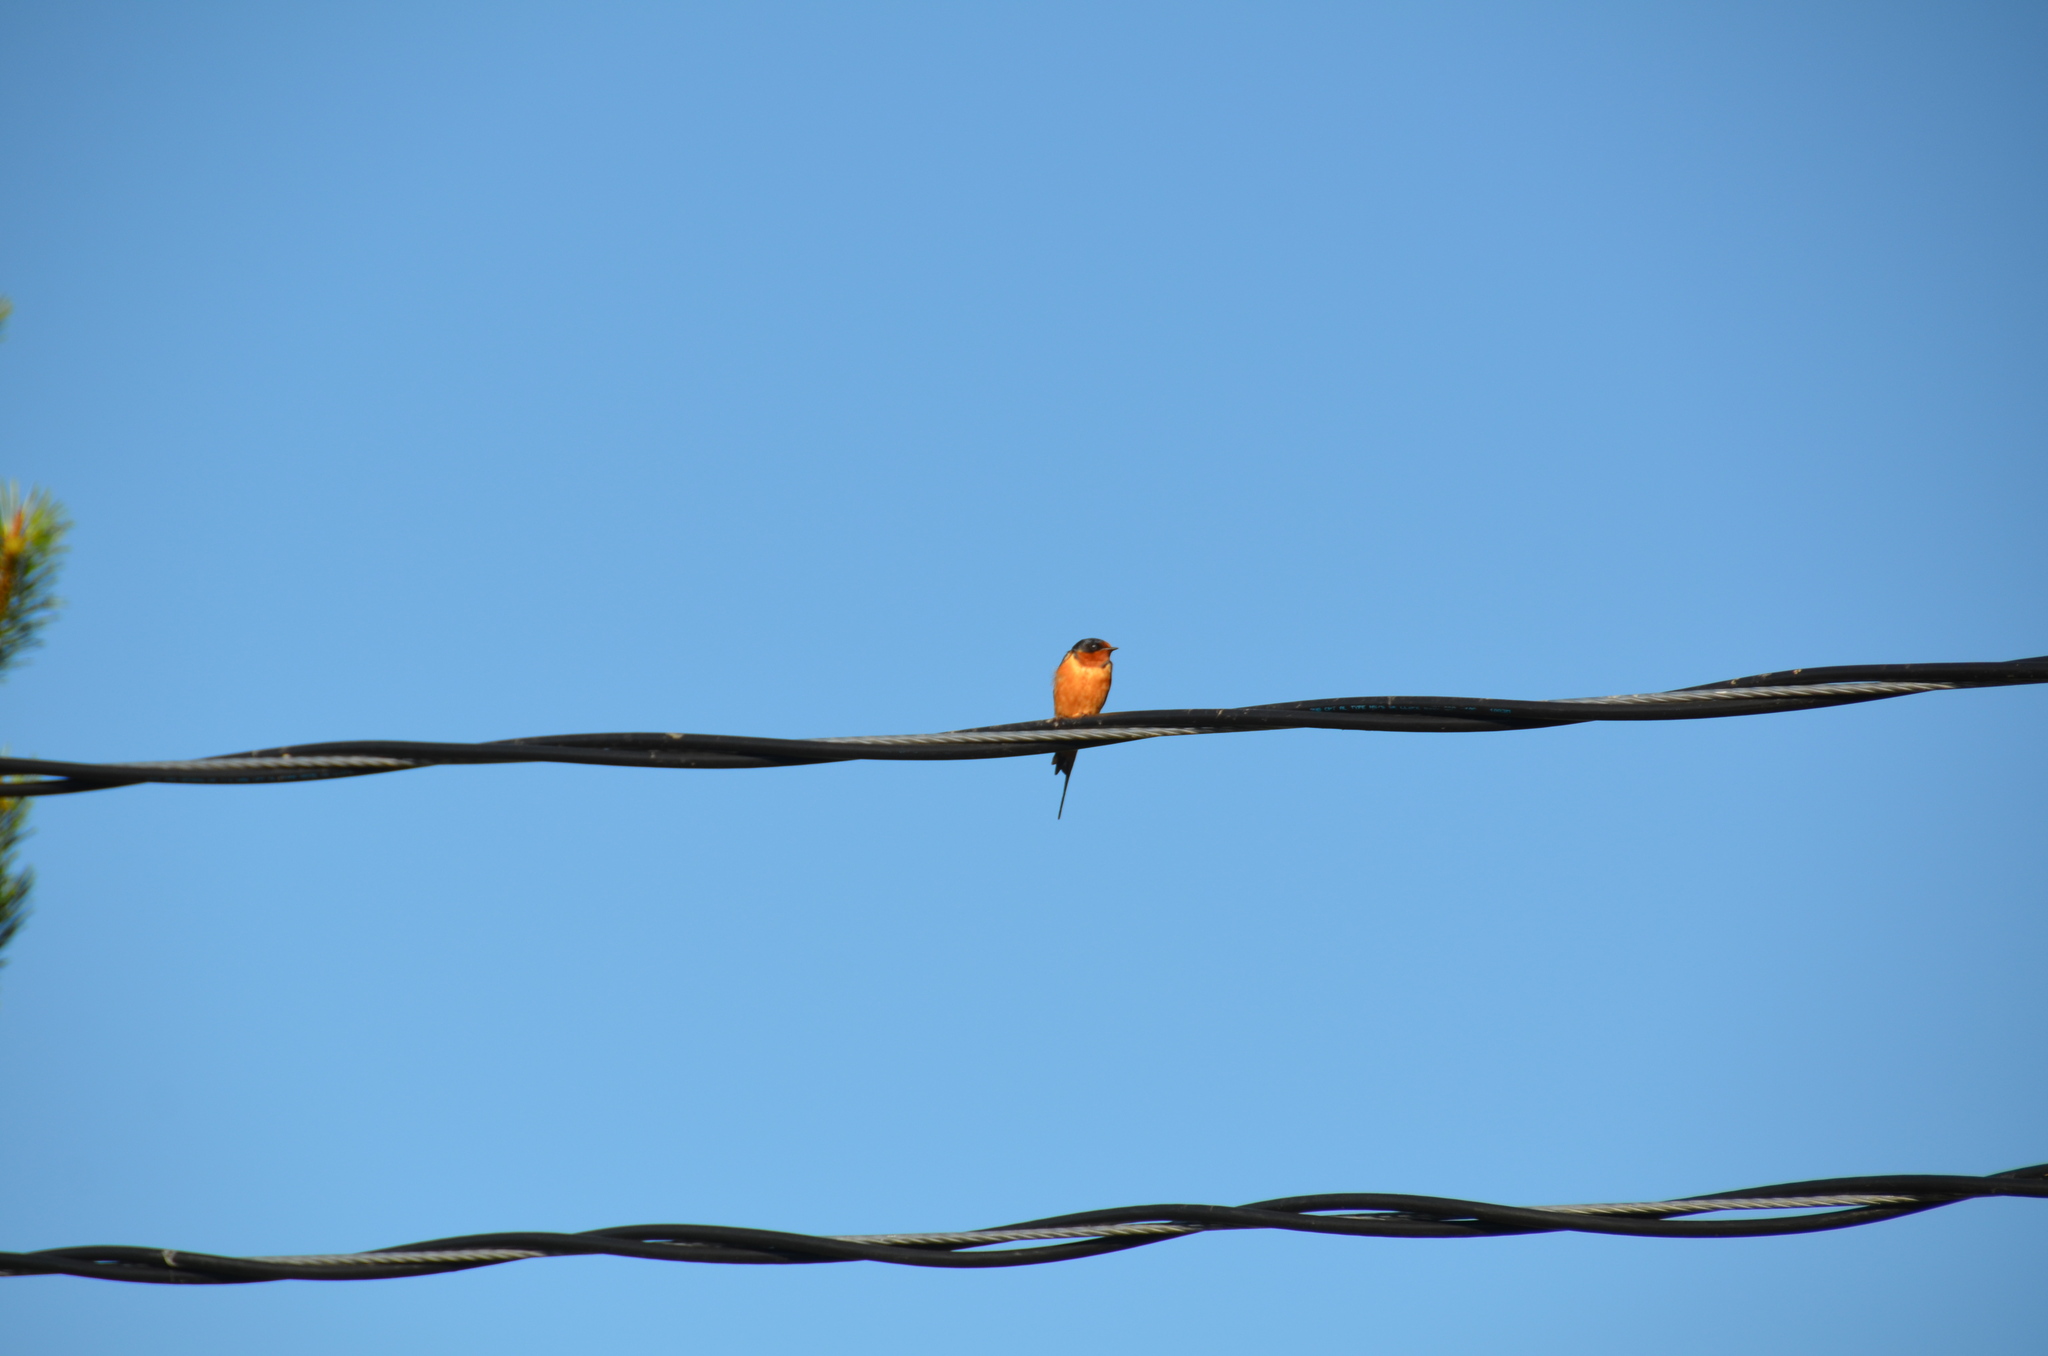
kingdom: Animalia
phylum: Chordata
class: Aves
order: Passeriformes
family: Hirundinidae
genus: Hirundo
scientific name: Hirundo rustica
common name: Barn swallow
